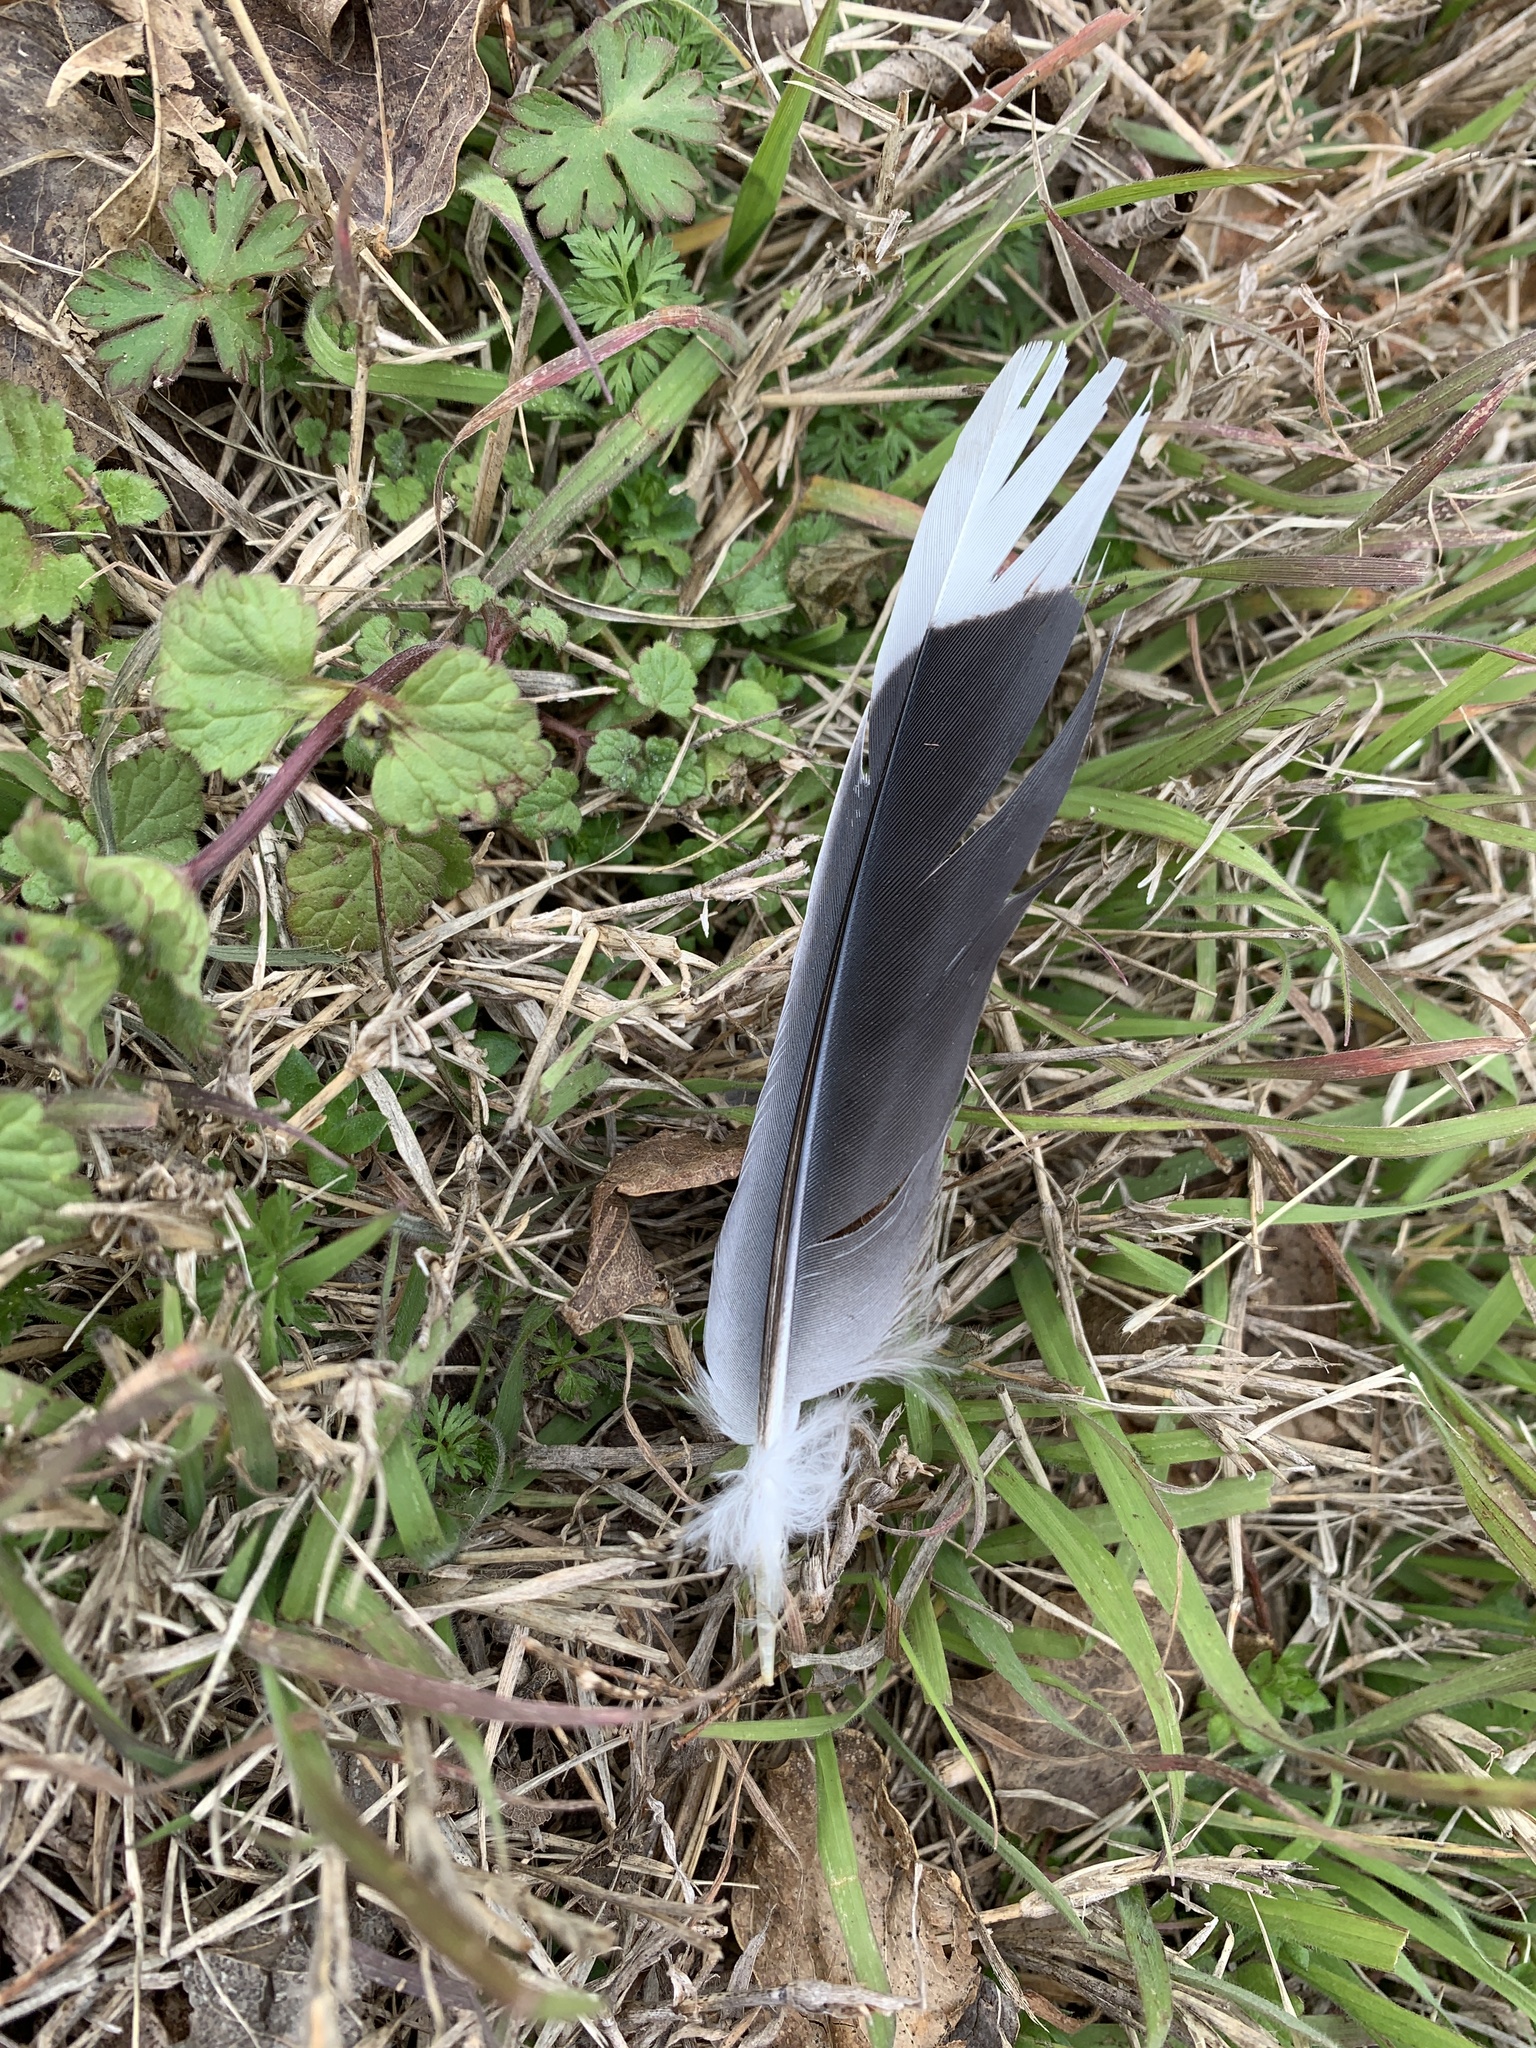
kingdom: Animalia
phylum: Chordata
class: Aves
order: Columbiformes
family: Columbidae
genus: Zenaida
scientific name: Zenaida asiatica
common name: White-winged dove
